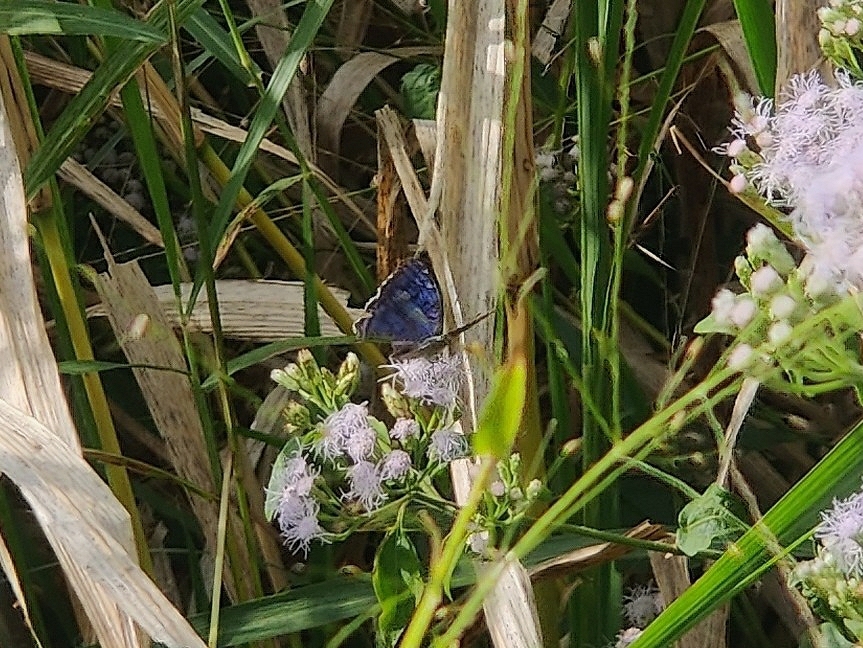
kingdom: Animalia
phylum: Arthropoda
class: Insecta
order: Lepidoptera
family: Nymphalidae
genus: Junonia
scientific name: Junonia rhadama
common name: Royal blue pansy
